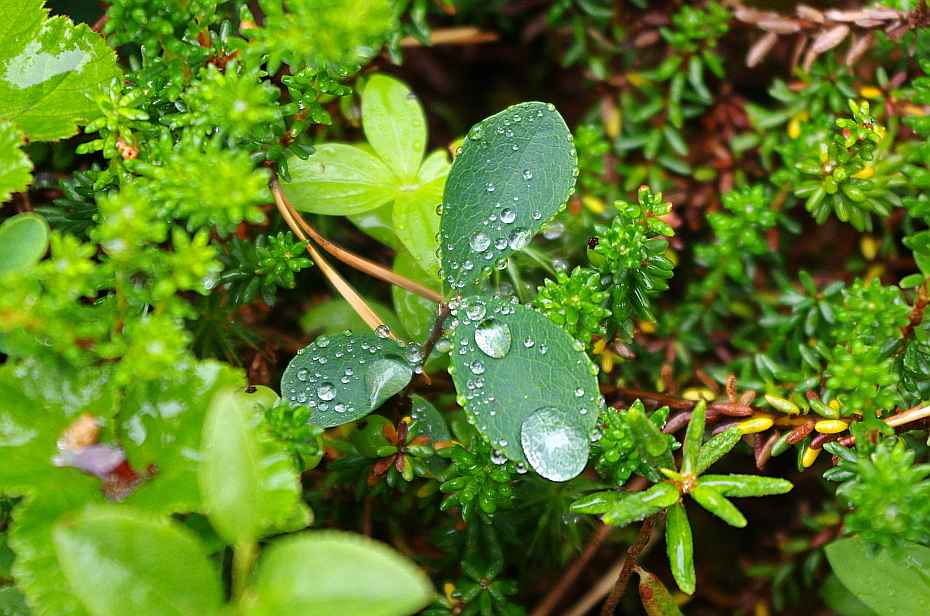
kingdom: Plantae
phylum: Tracheophyta
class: Magnoliopsida
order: Ericales
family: Ericaceae
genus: Vaccinium
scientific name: Vaccinium uliginosum
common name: Bog bilberry
